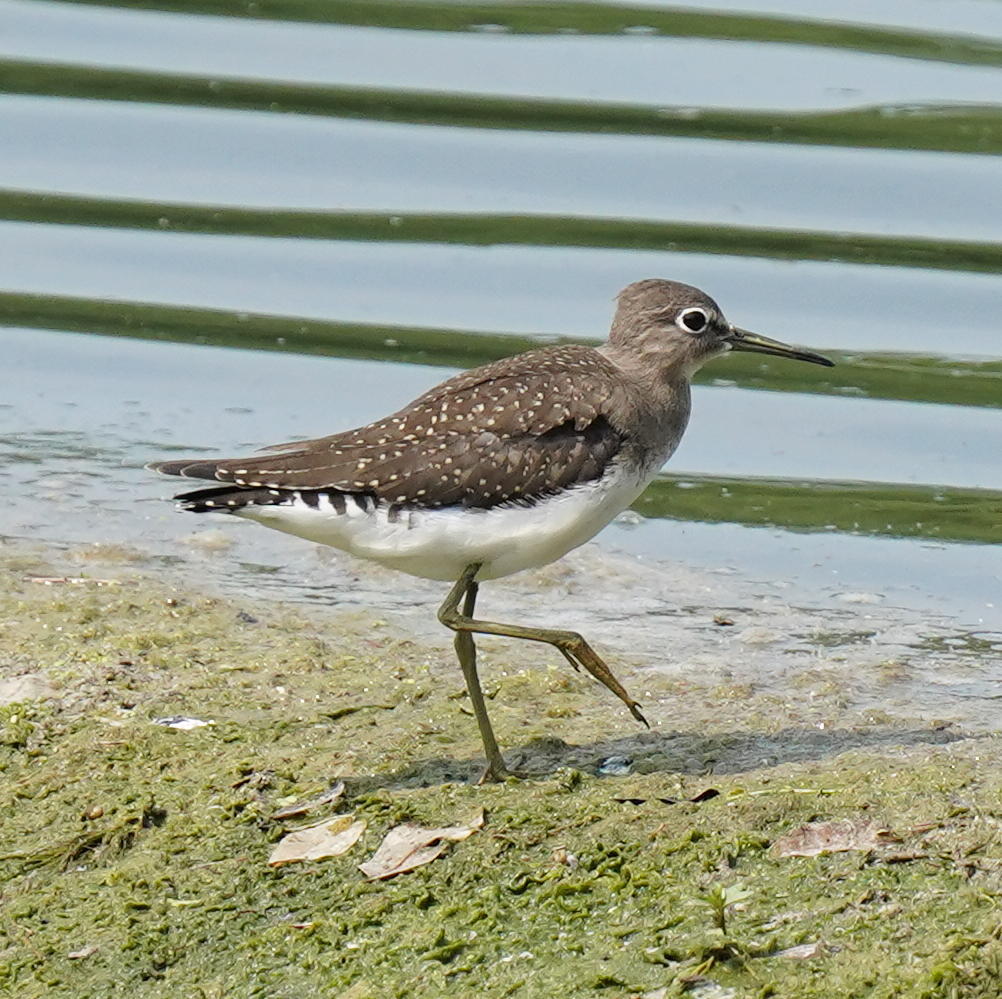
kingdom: Animalia
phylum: Chordata
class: Aves
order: Charadriiformes
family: Scolopacidae
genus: Tringa
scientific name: Tringa solitaria
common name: Solitary sandpiper
